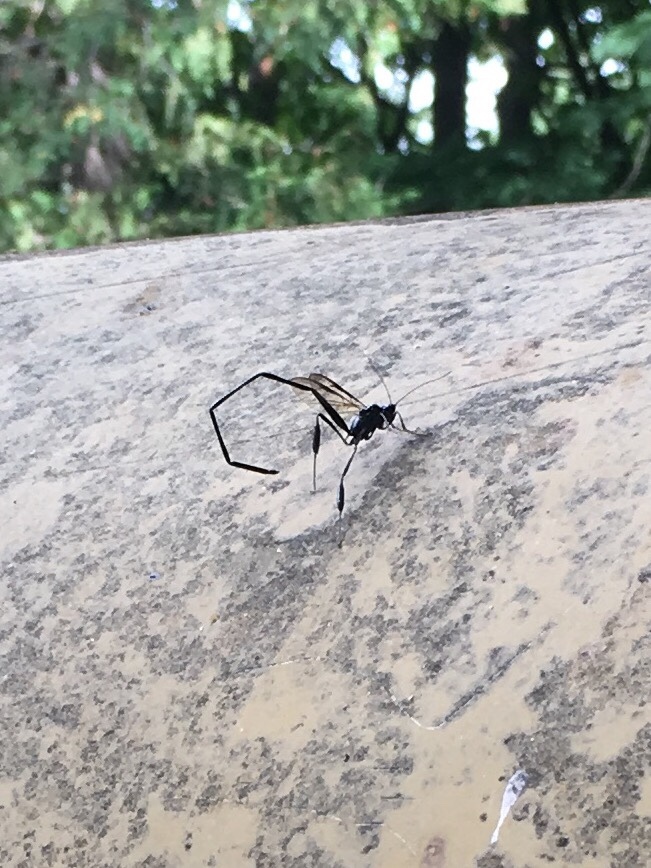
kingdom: Animalia
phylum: Arthropoda
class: Insecta
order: Hymenoptera
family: Pelecinidae
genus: Pelecinus
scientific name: Pelecinus polyturator
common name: American pelecinid wasp
